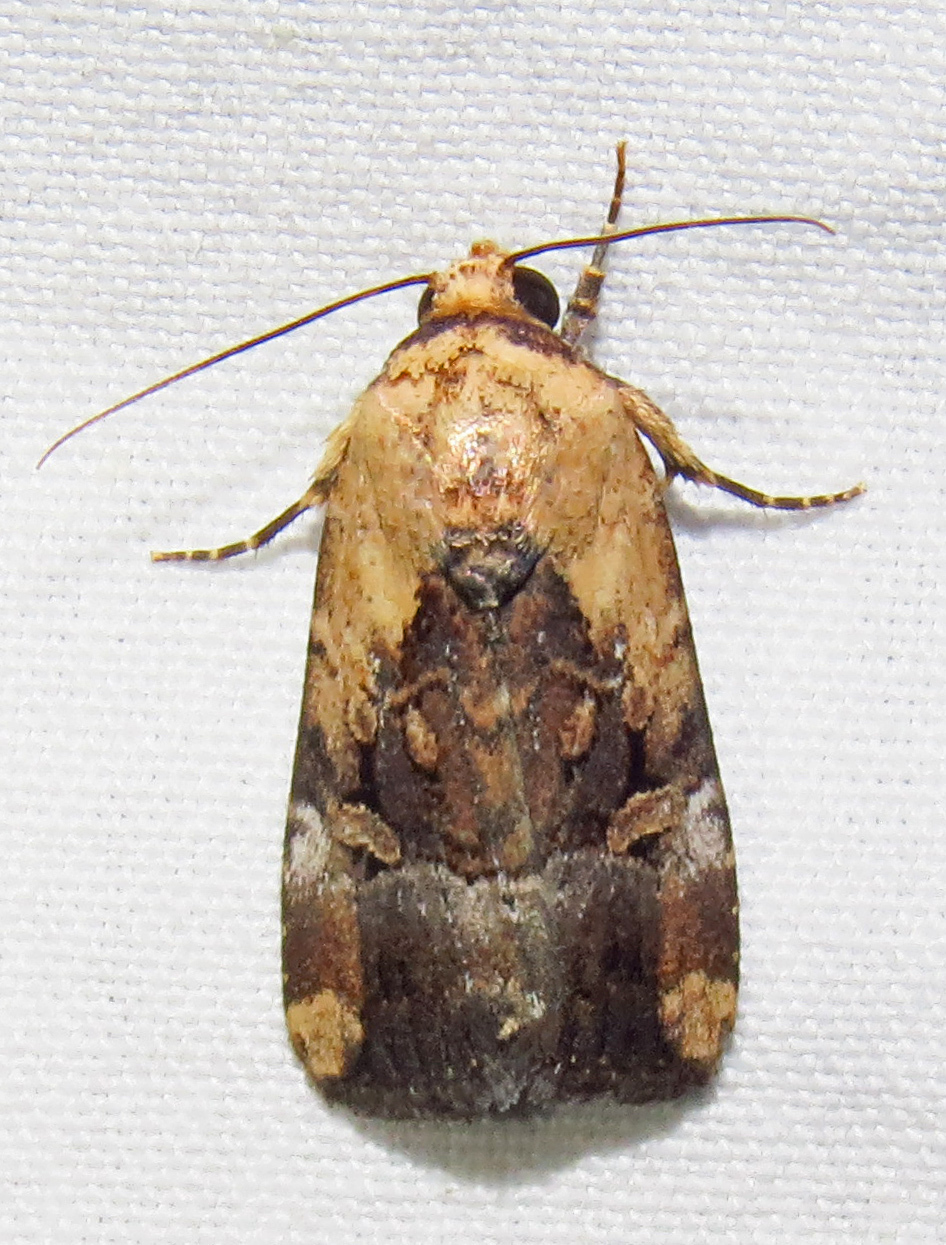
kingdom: Animalia
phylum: Arthropoda
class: Insecta
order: Lepidoptera
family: Noctuidae
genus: Elaphria
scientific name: Elaphria chalcedonia
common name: Chalcedony midget
